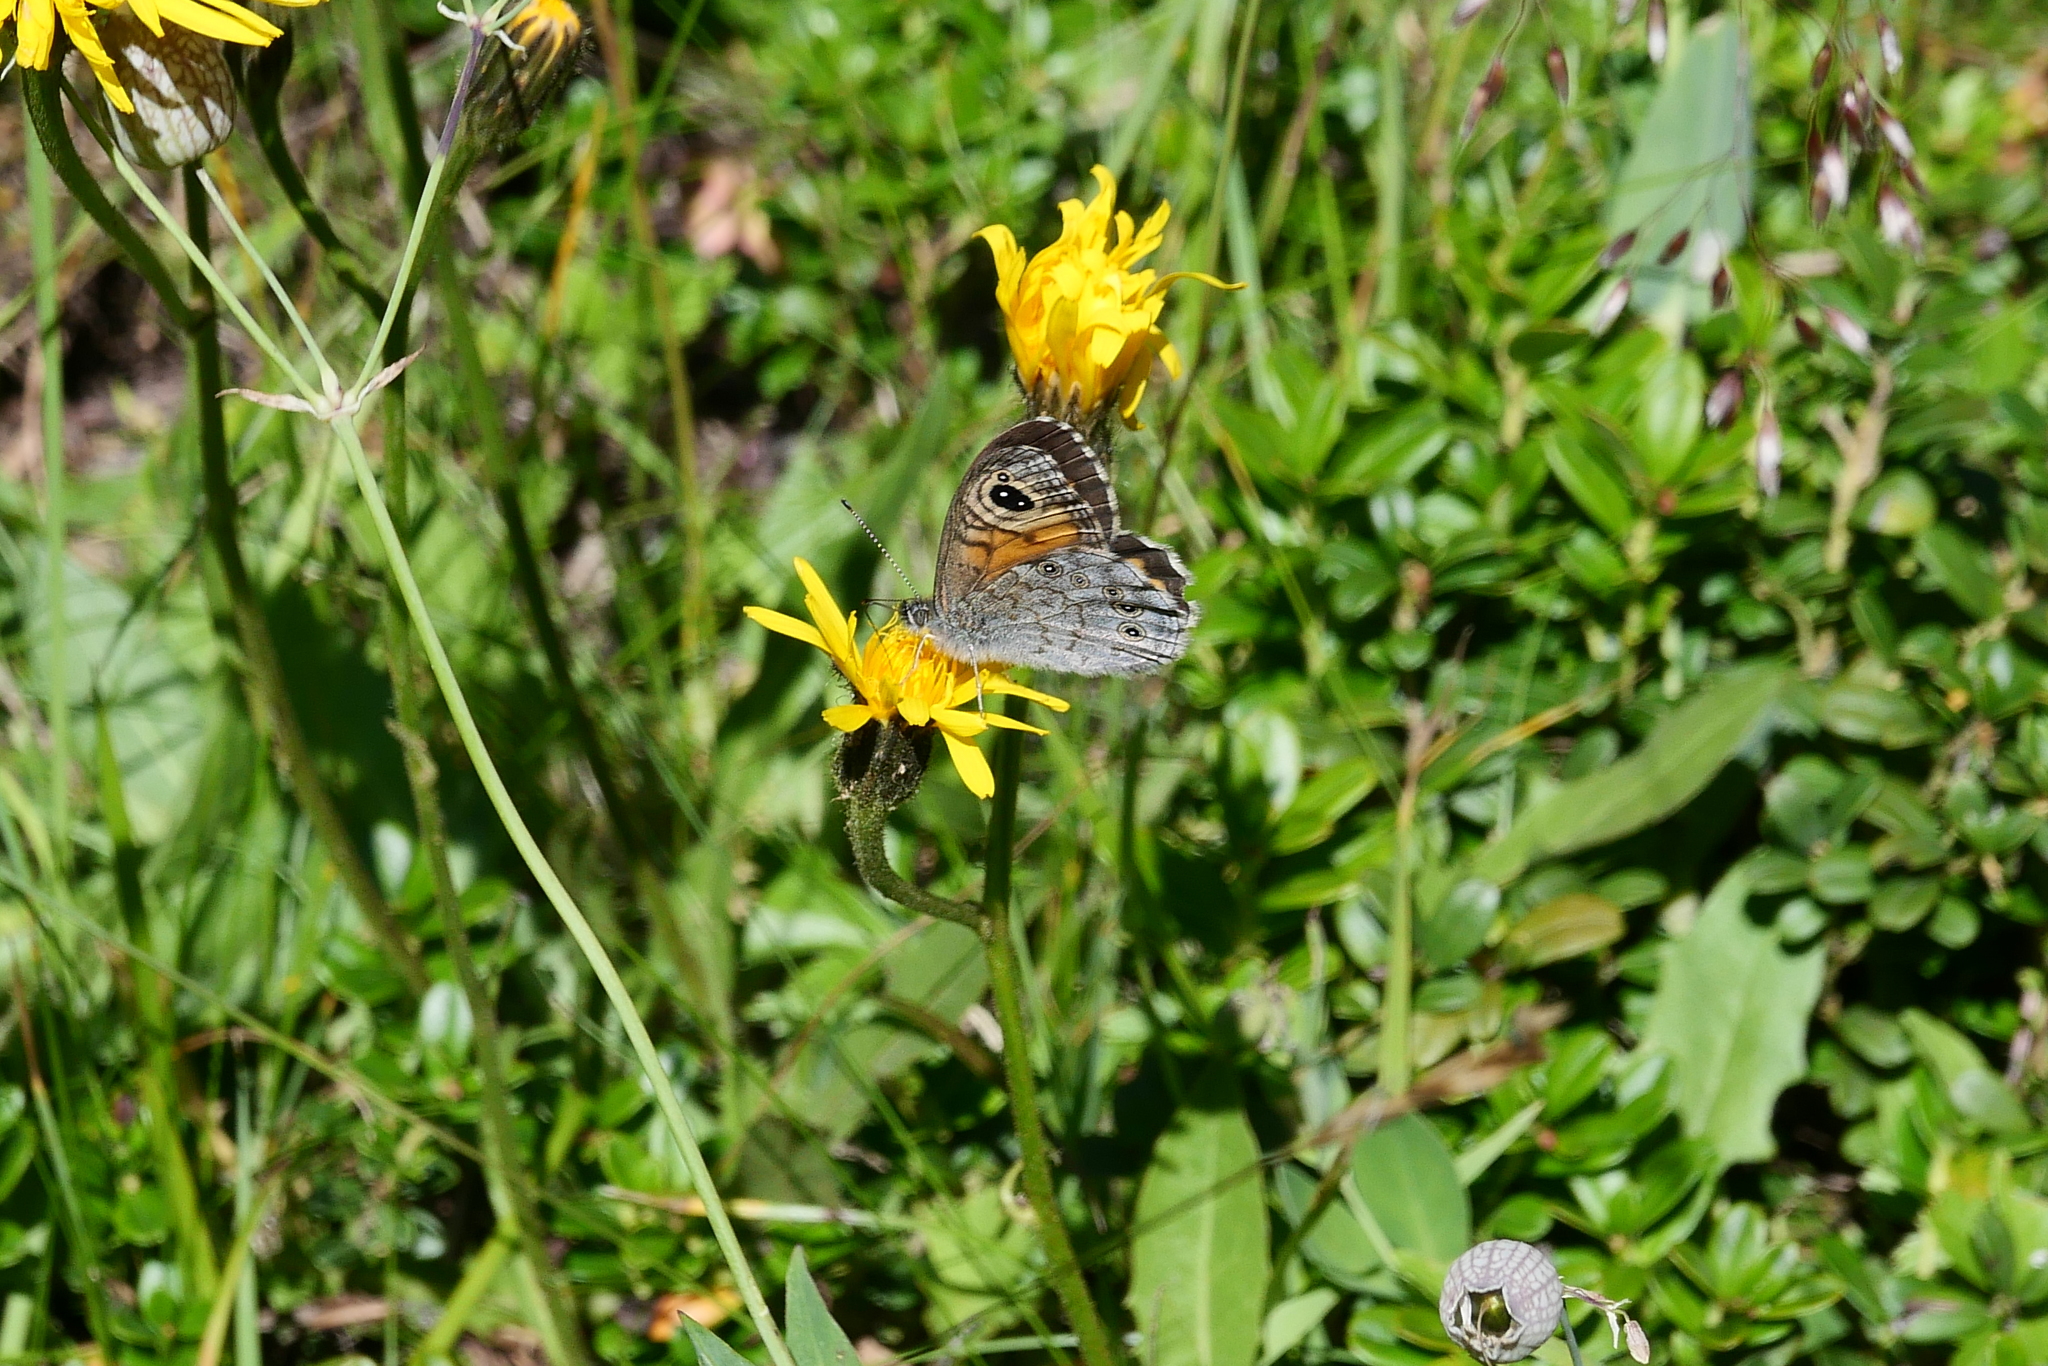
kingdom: Animalia
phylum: Arthropoda
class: Insecta
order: Lepidoptera
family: Nymphalidae
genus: Pararge
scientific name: Pararge Lasiommata maera
